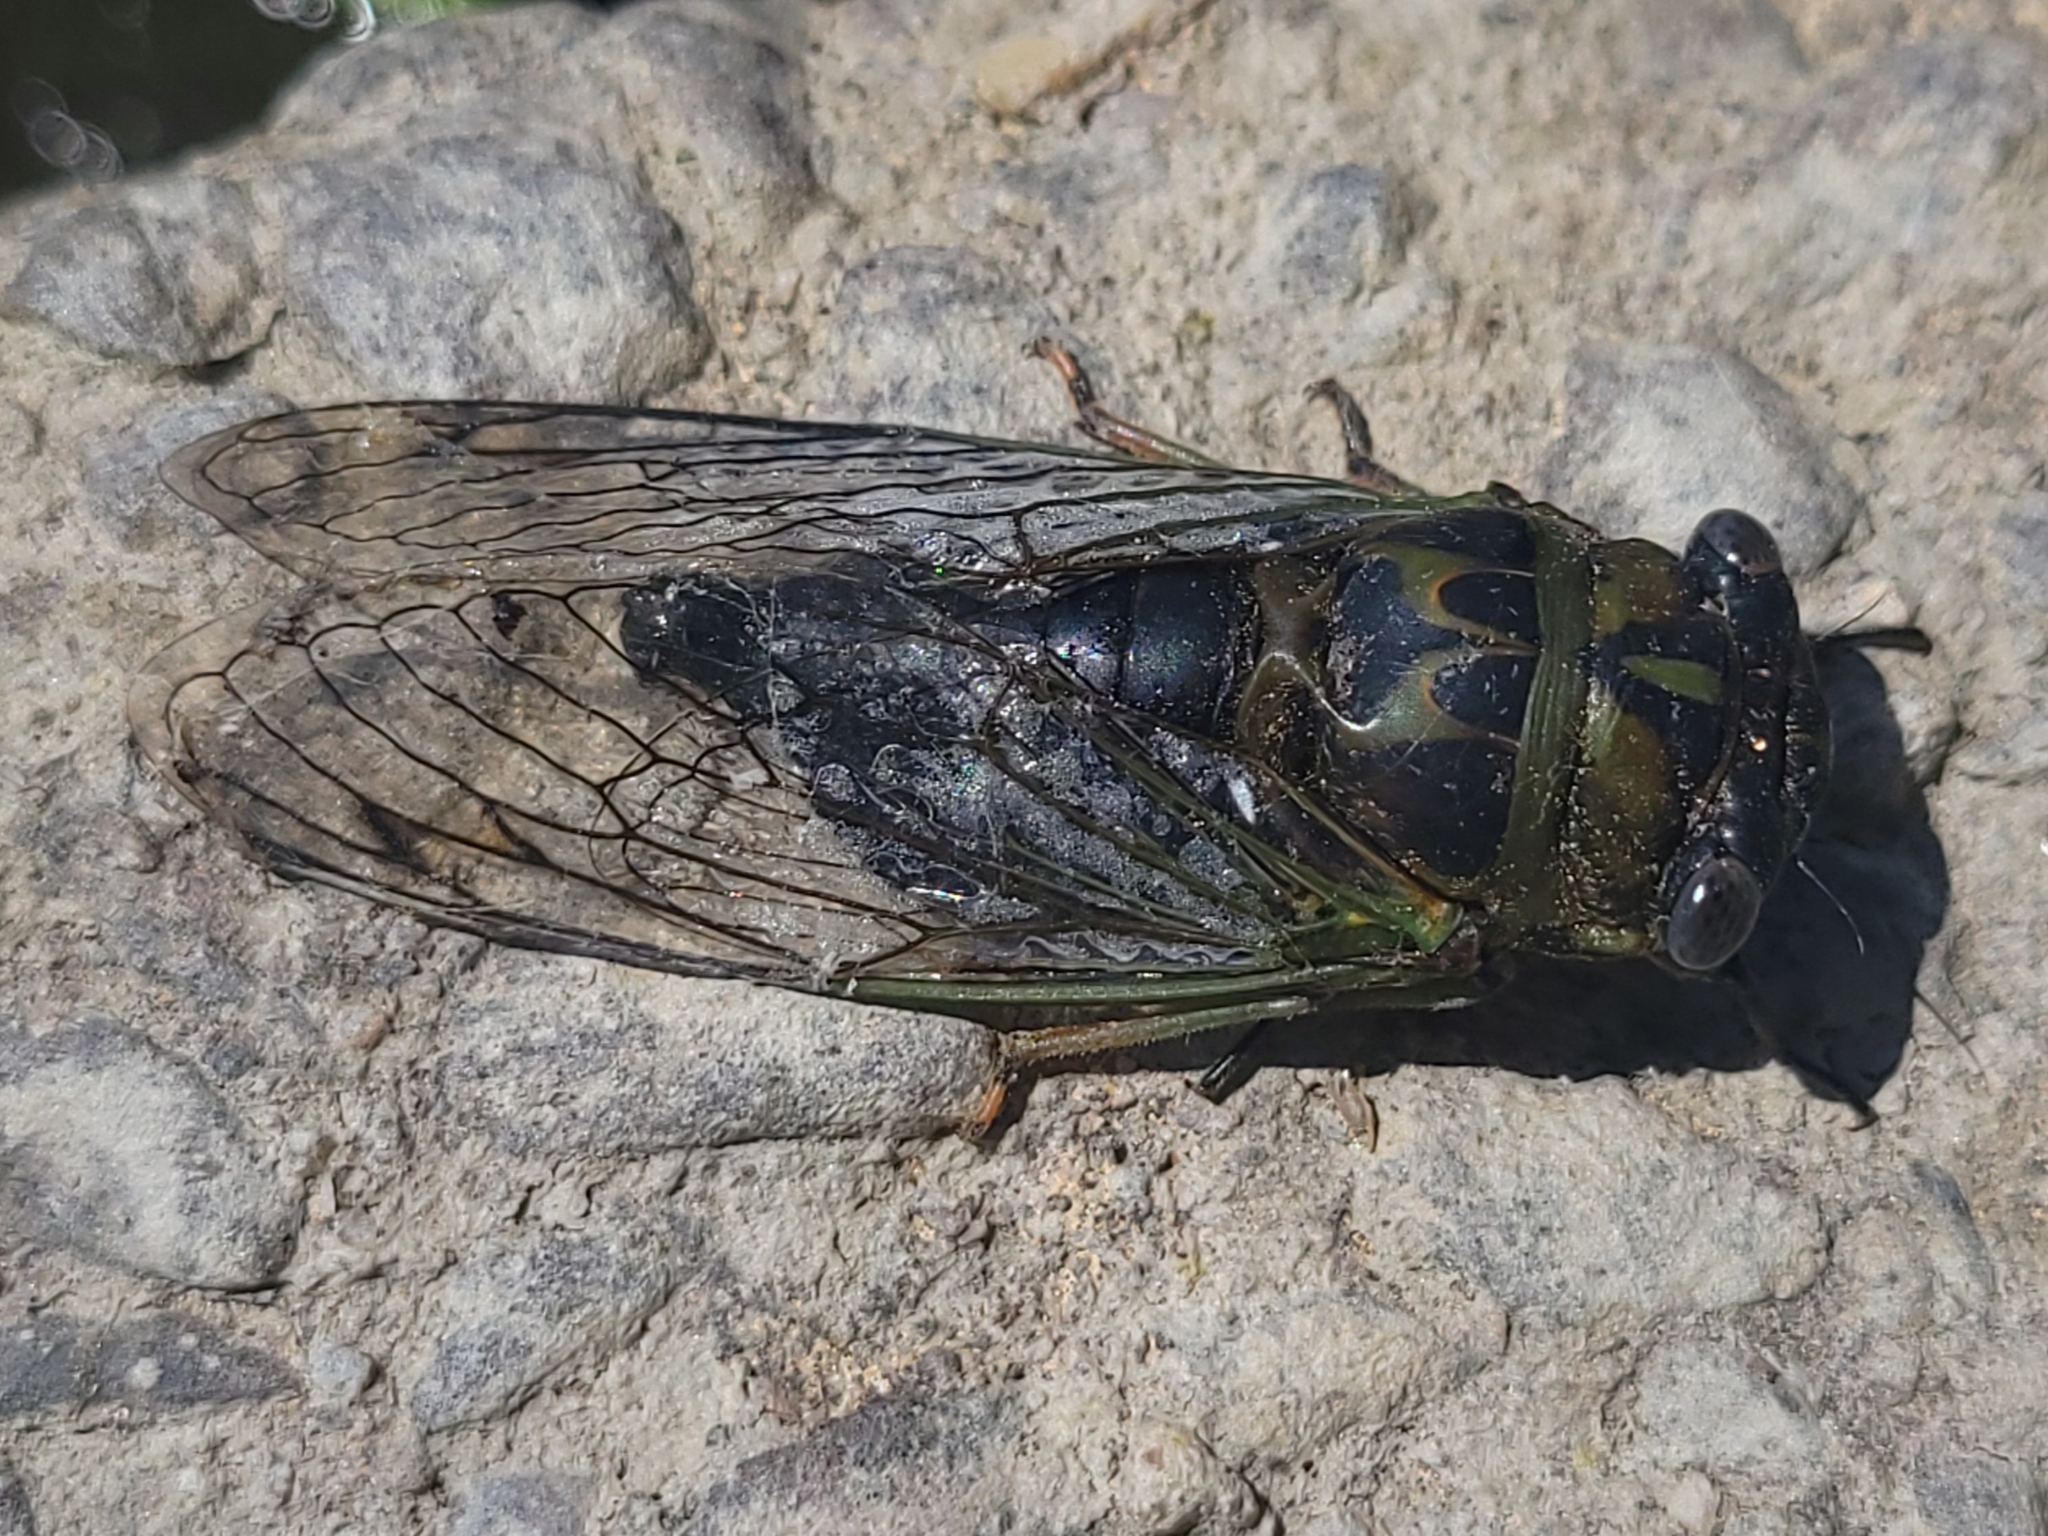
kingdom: Animalia
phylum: Arthropoda
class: Insecta
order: Hemiptera
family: Cicadidae
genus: Neotibicen
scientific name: Neotibicen canicularis
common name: God-day cicada
